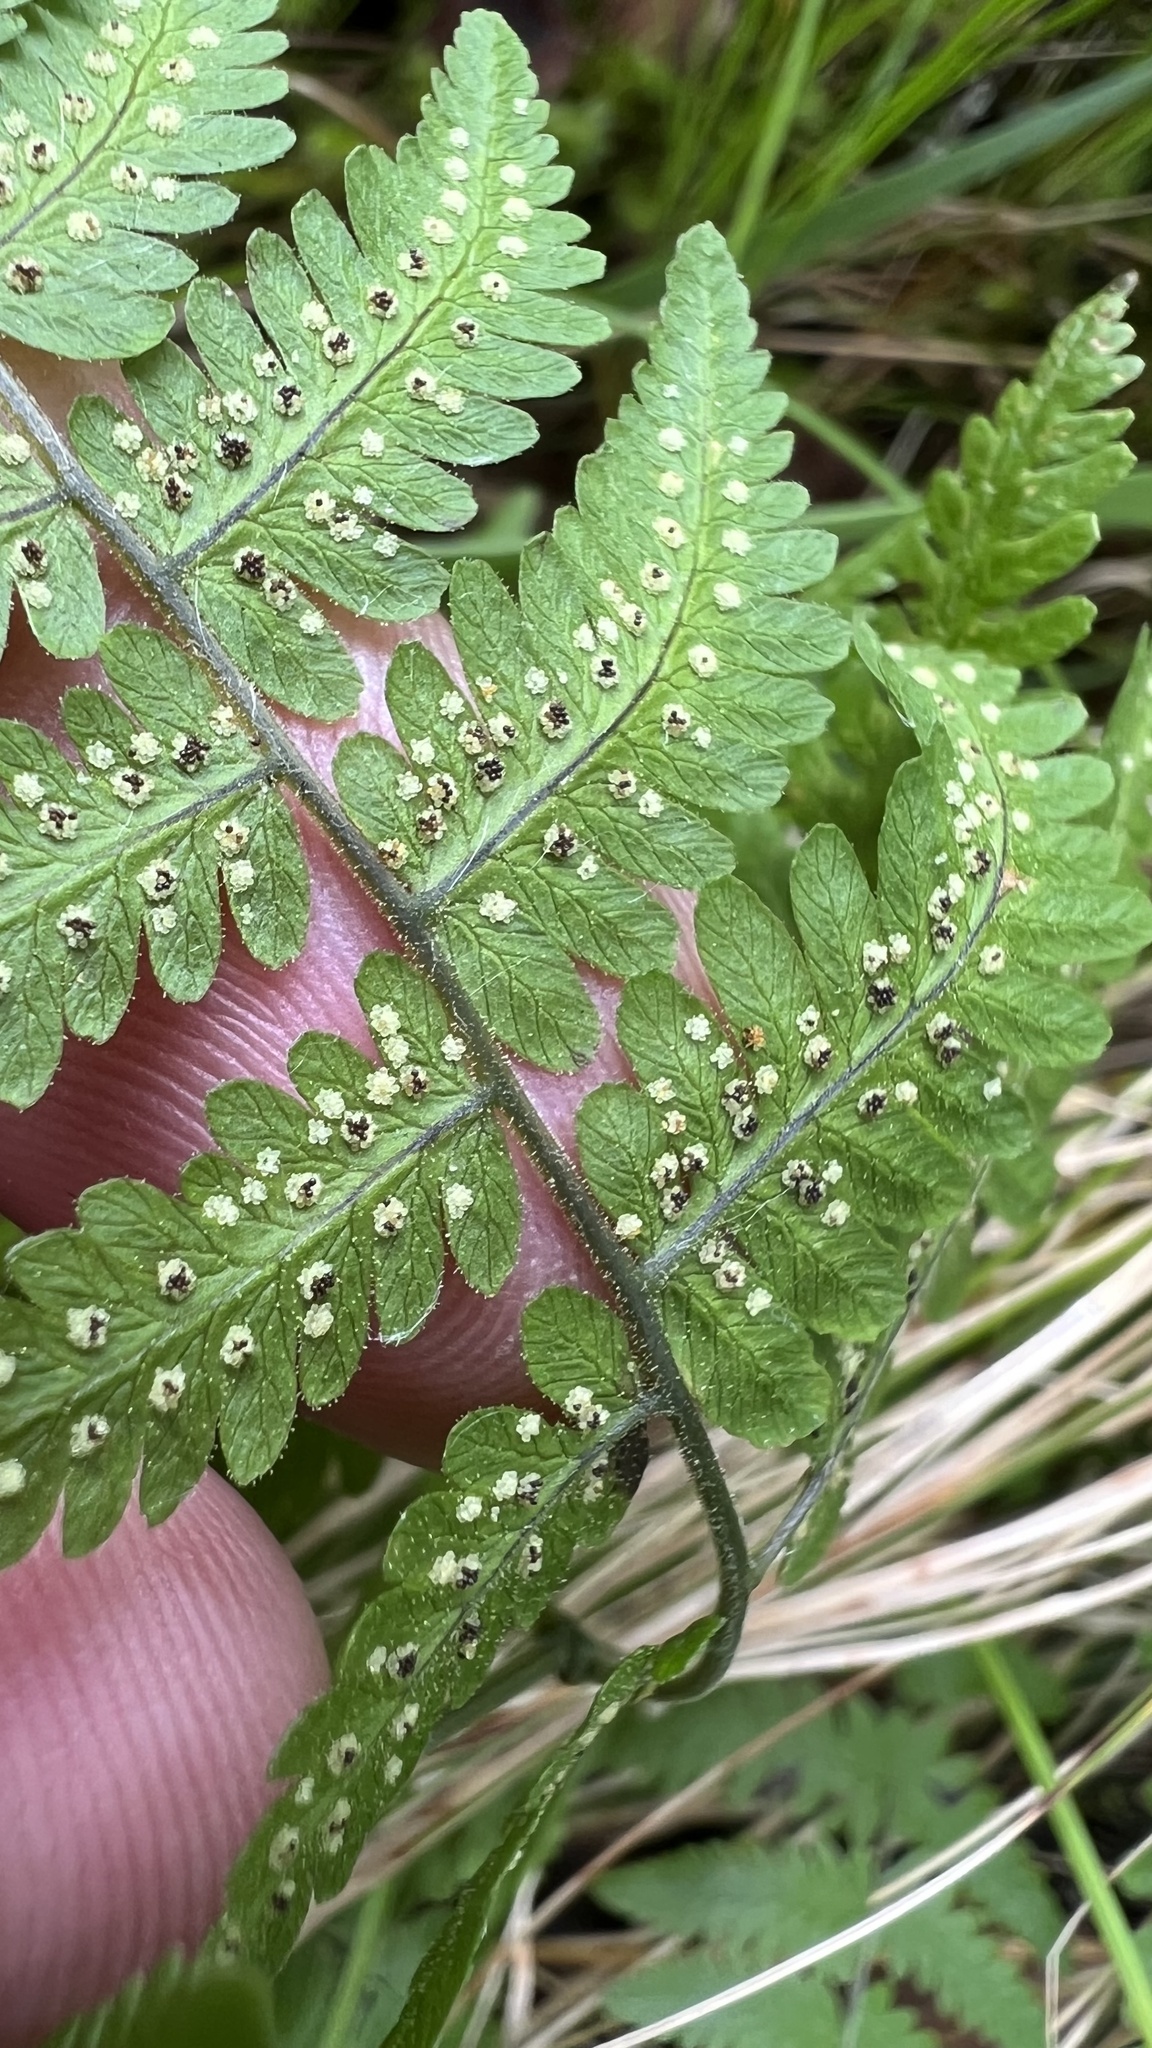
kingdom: Plantae
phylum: Tracheophyta
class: Polypodiopsida
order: Polypodiales
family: Cystopteridaceae
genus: Gymnocarpium
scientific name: Gymnocarpium robertianum
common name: Limestone fern
